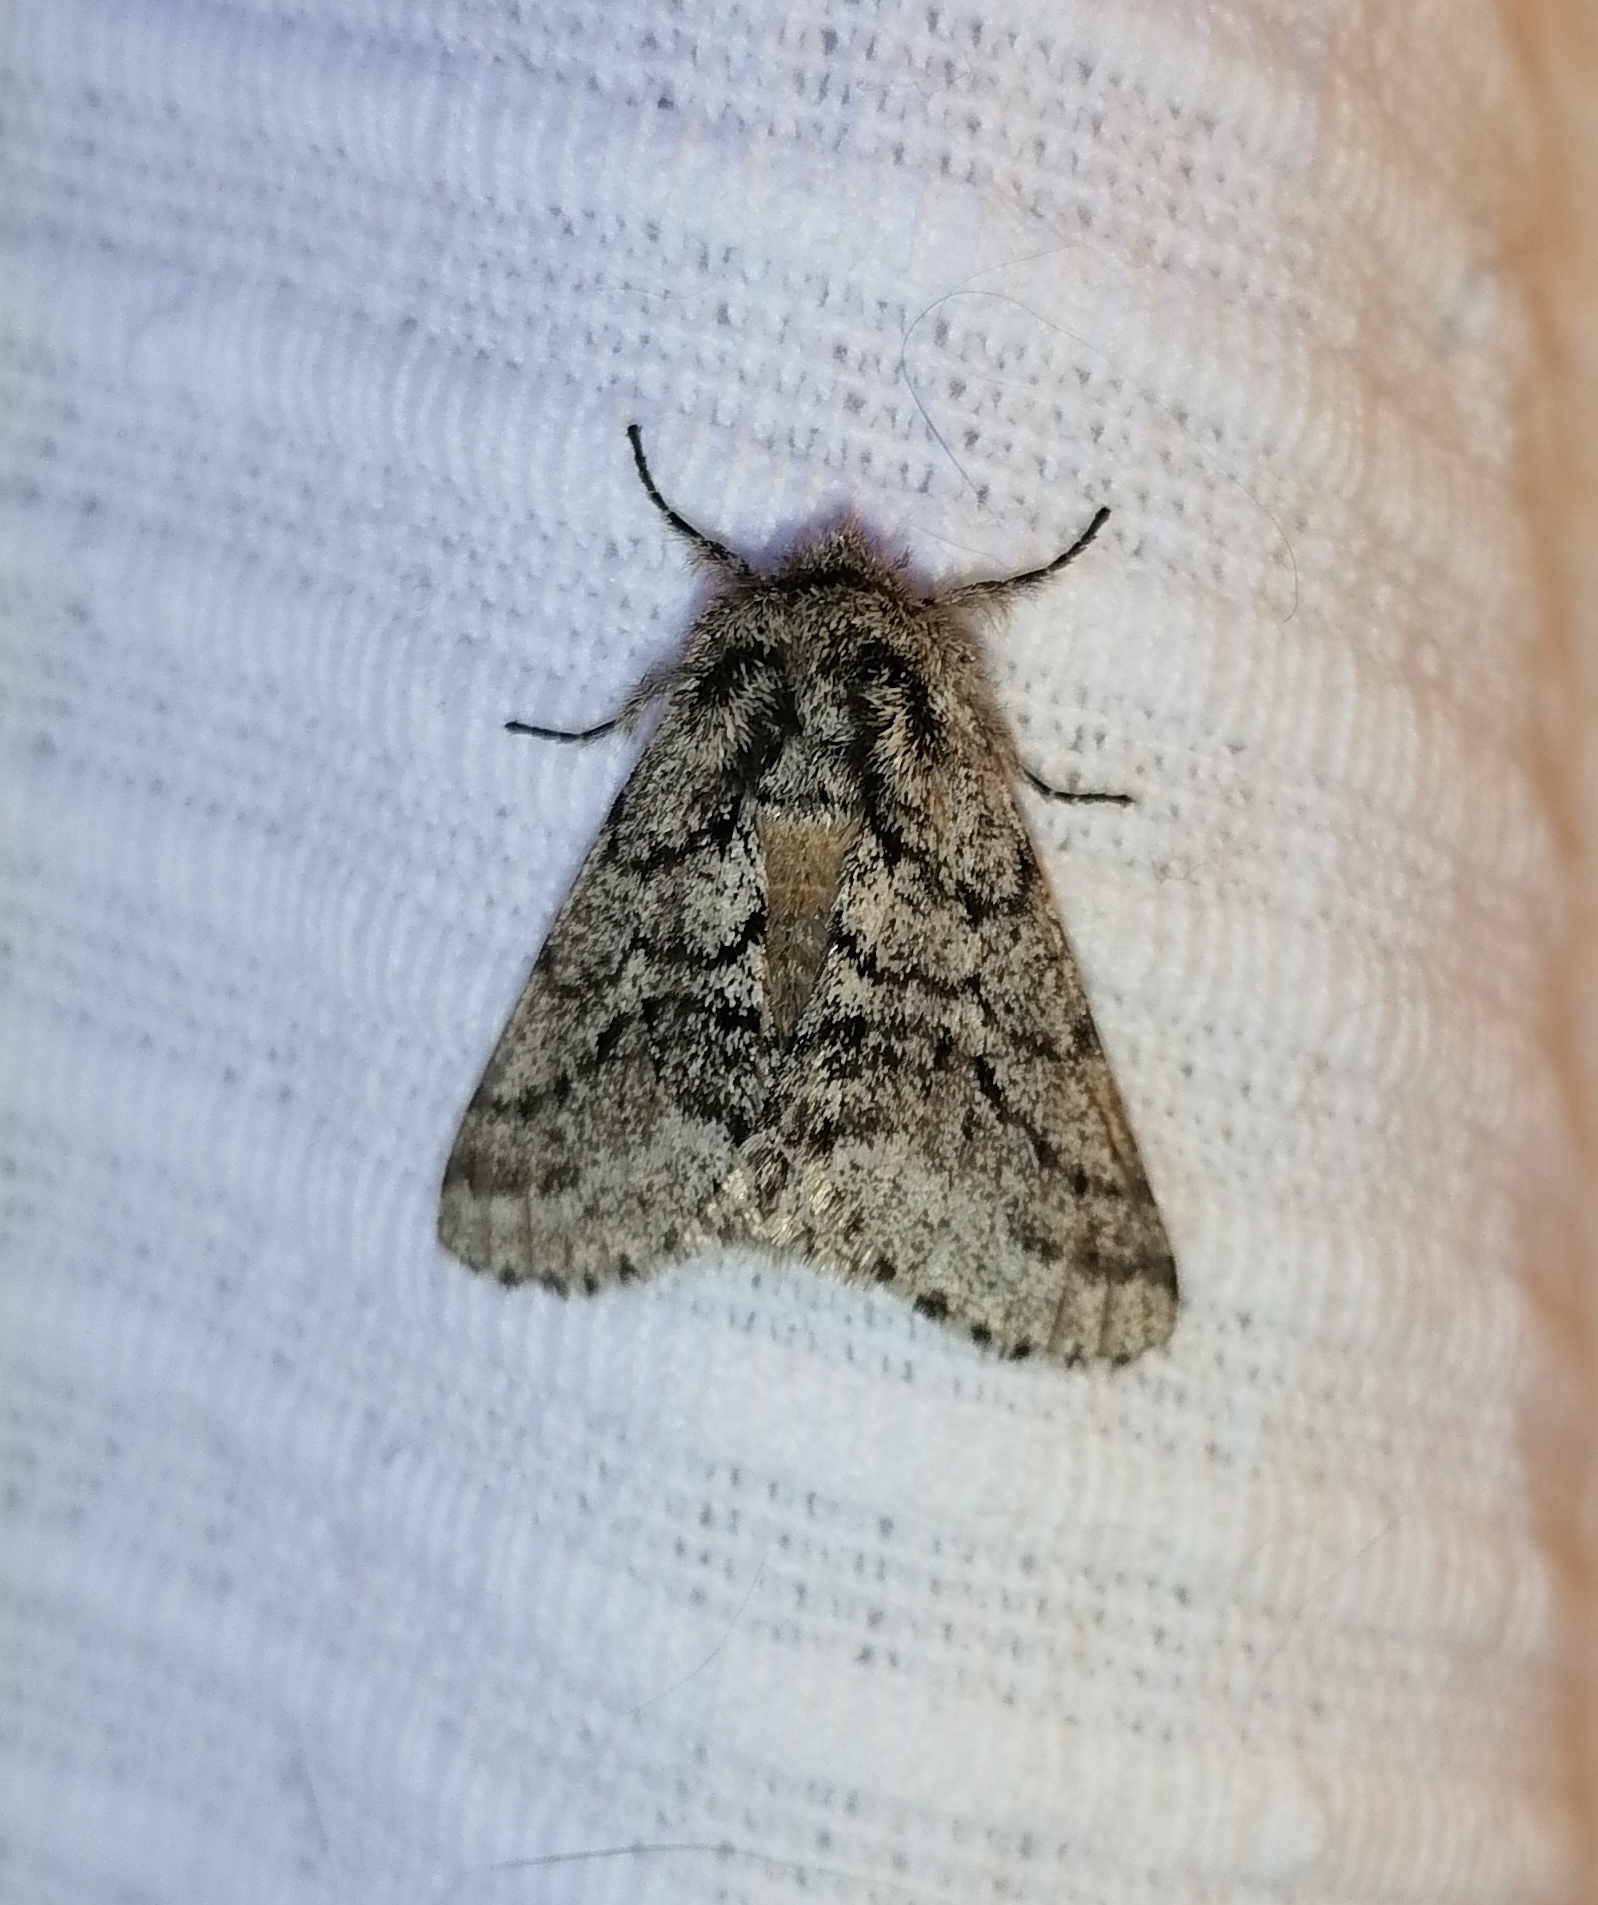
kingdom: Animalia
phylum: Arthropoda
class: Insecta
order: Lepidoptera
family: Geometridae
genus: Lycia
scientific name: Lycia hirtaria
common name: Brindled beauty
